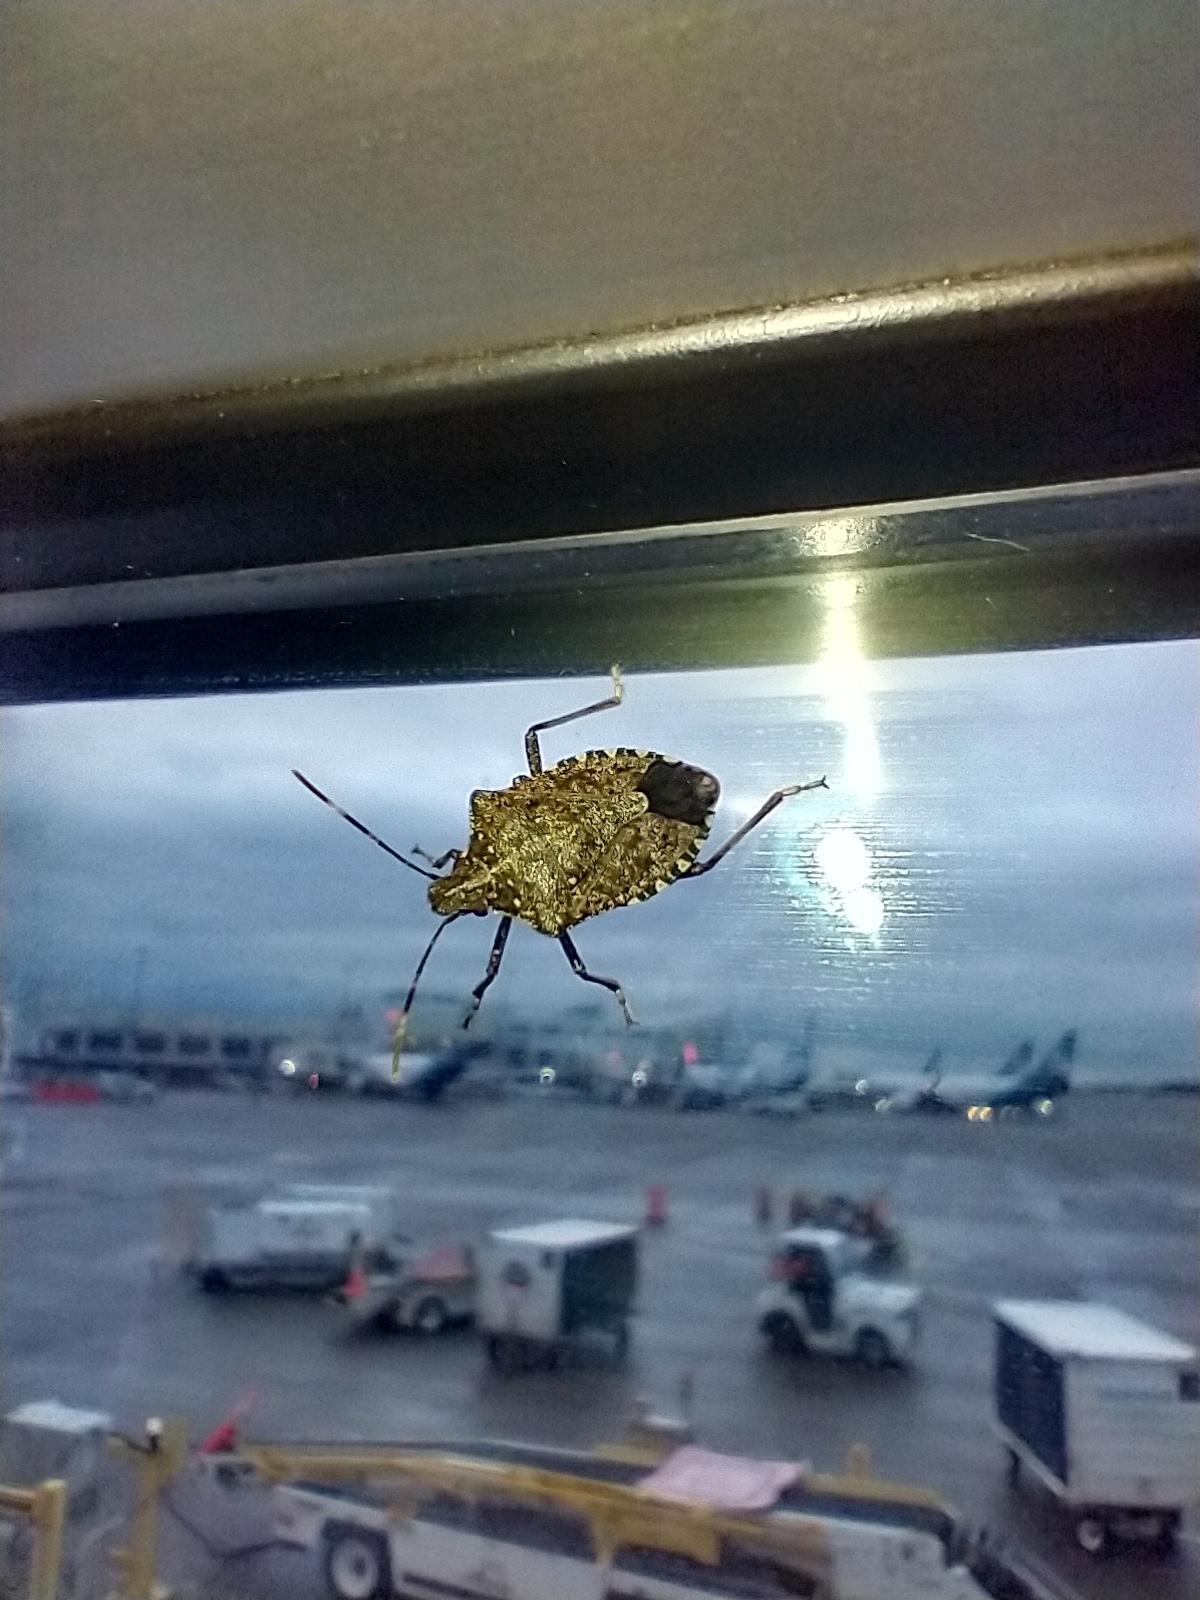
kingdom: Animalia
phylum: Arthropoda
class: Insecta
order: Hemiptera
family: Pentatomidae
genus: Halyomorpha
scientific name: Halyomorpha halys
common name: Brown marmorated stink bug
